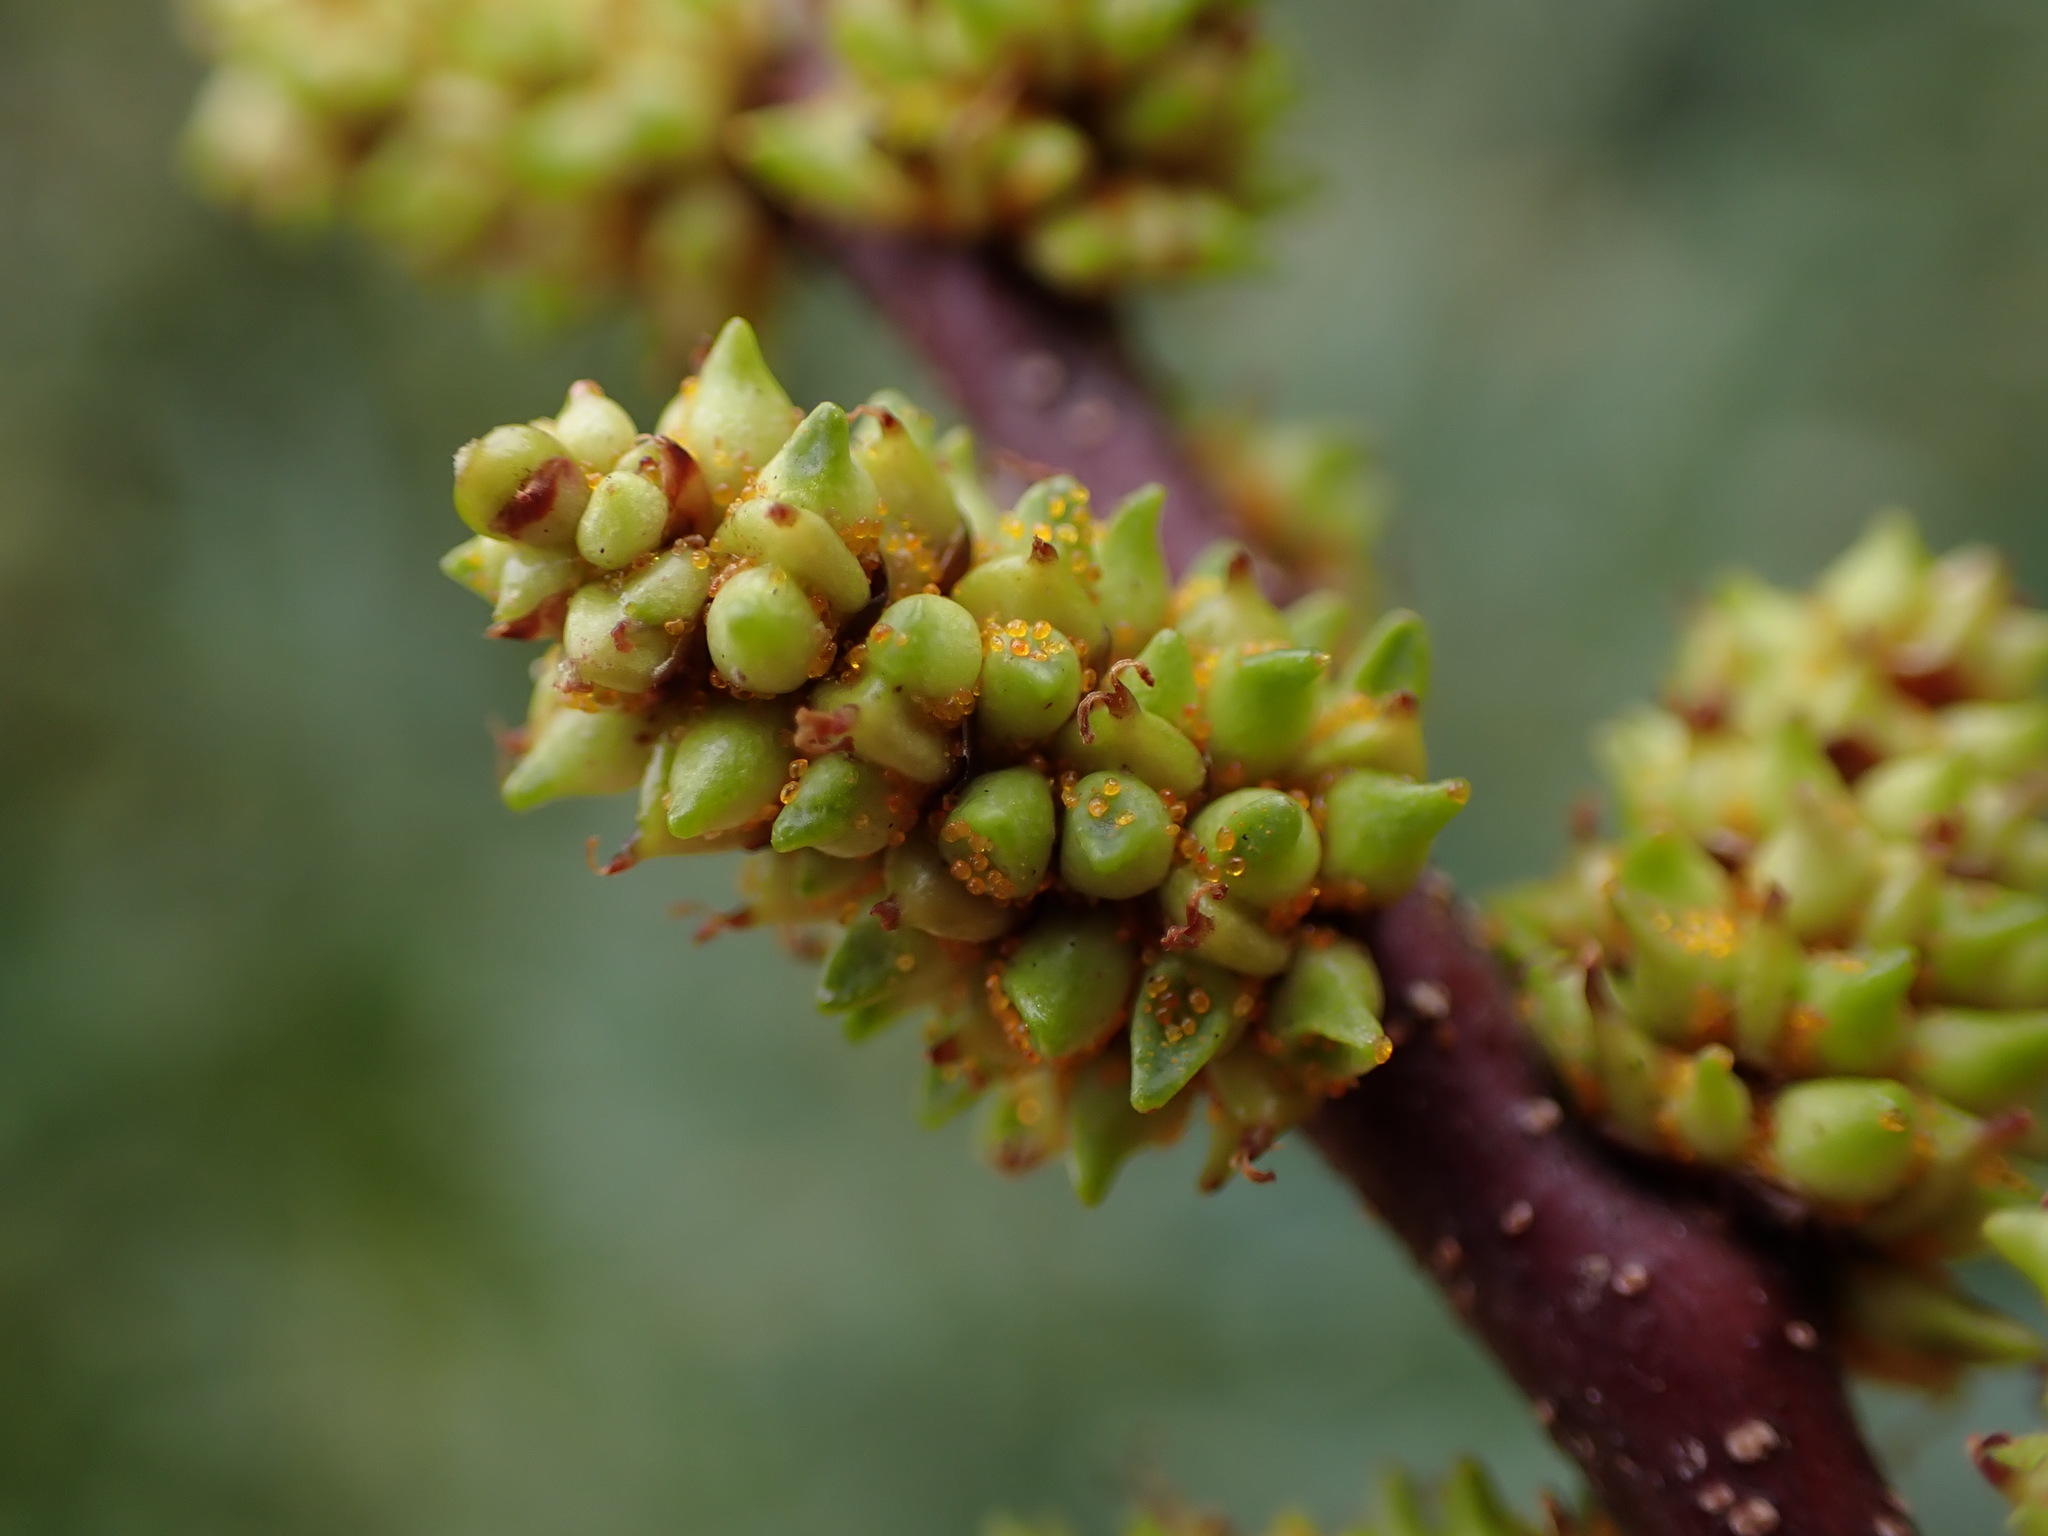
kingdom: Plantae
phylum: Tracheophyta
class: Magnoliopsida
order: Fagales
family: Myricaceae
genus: Myrica
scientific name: Myrica gale
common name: Sweet gale
